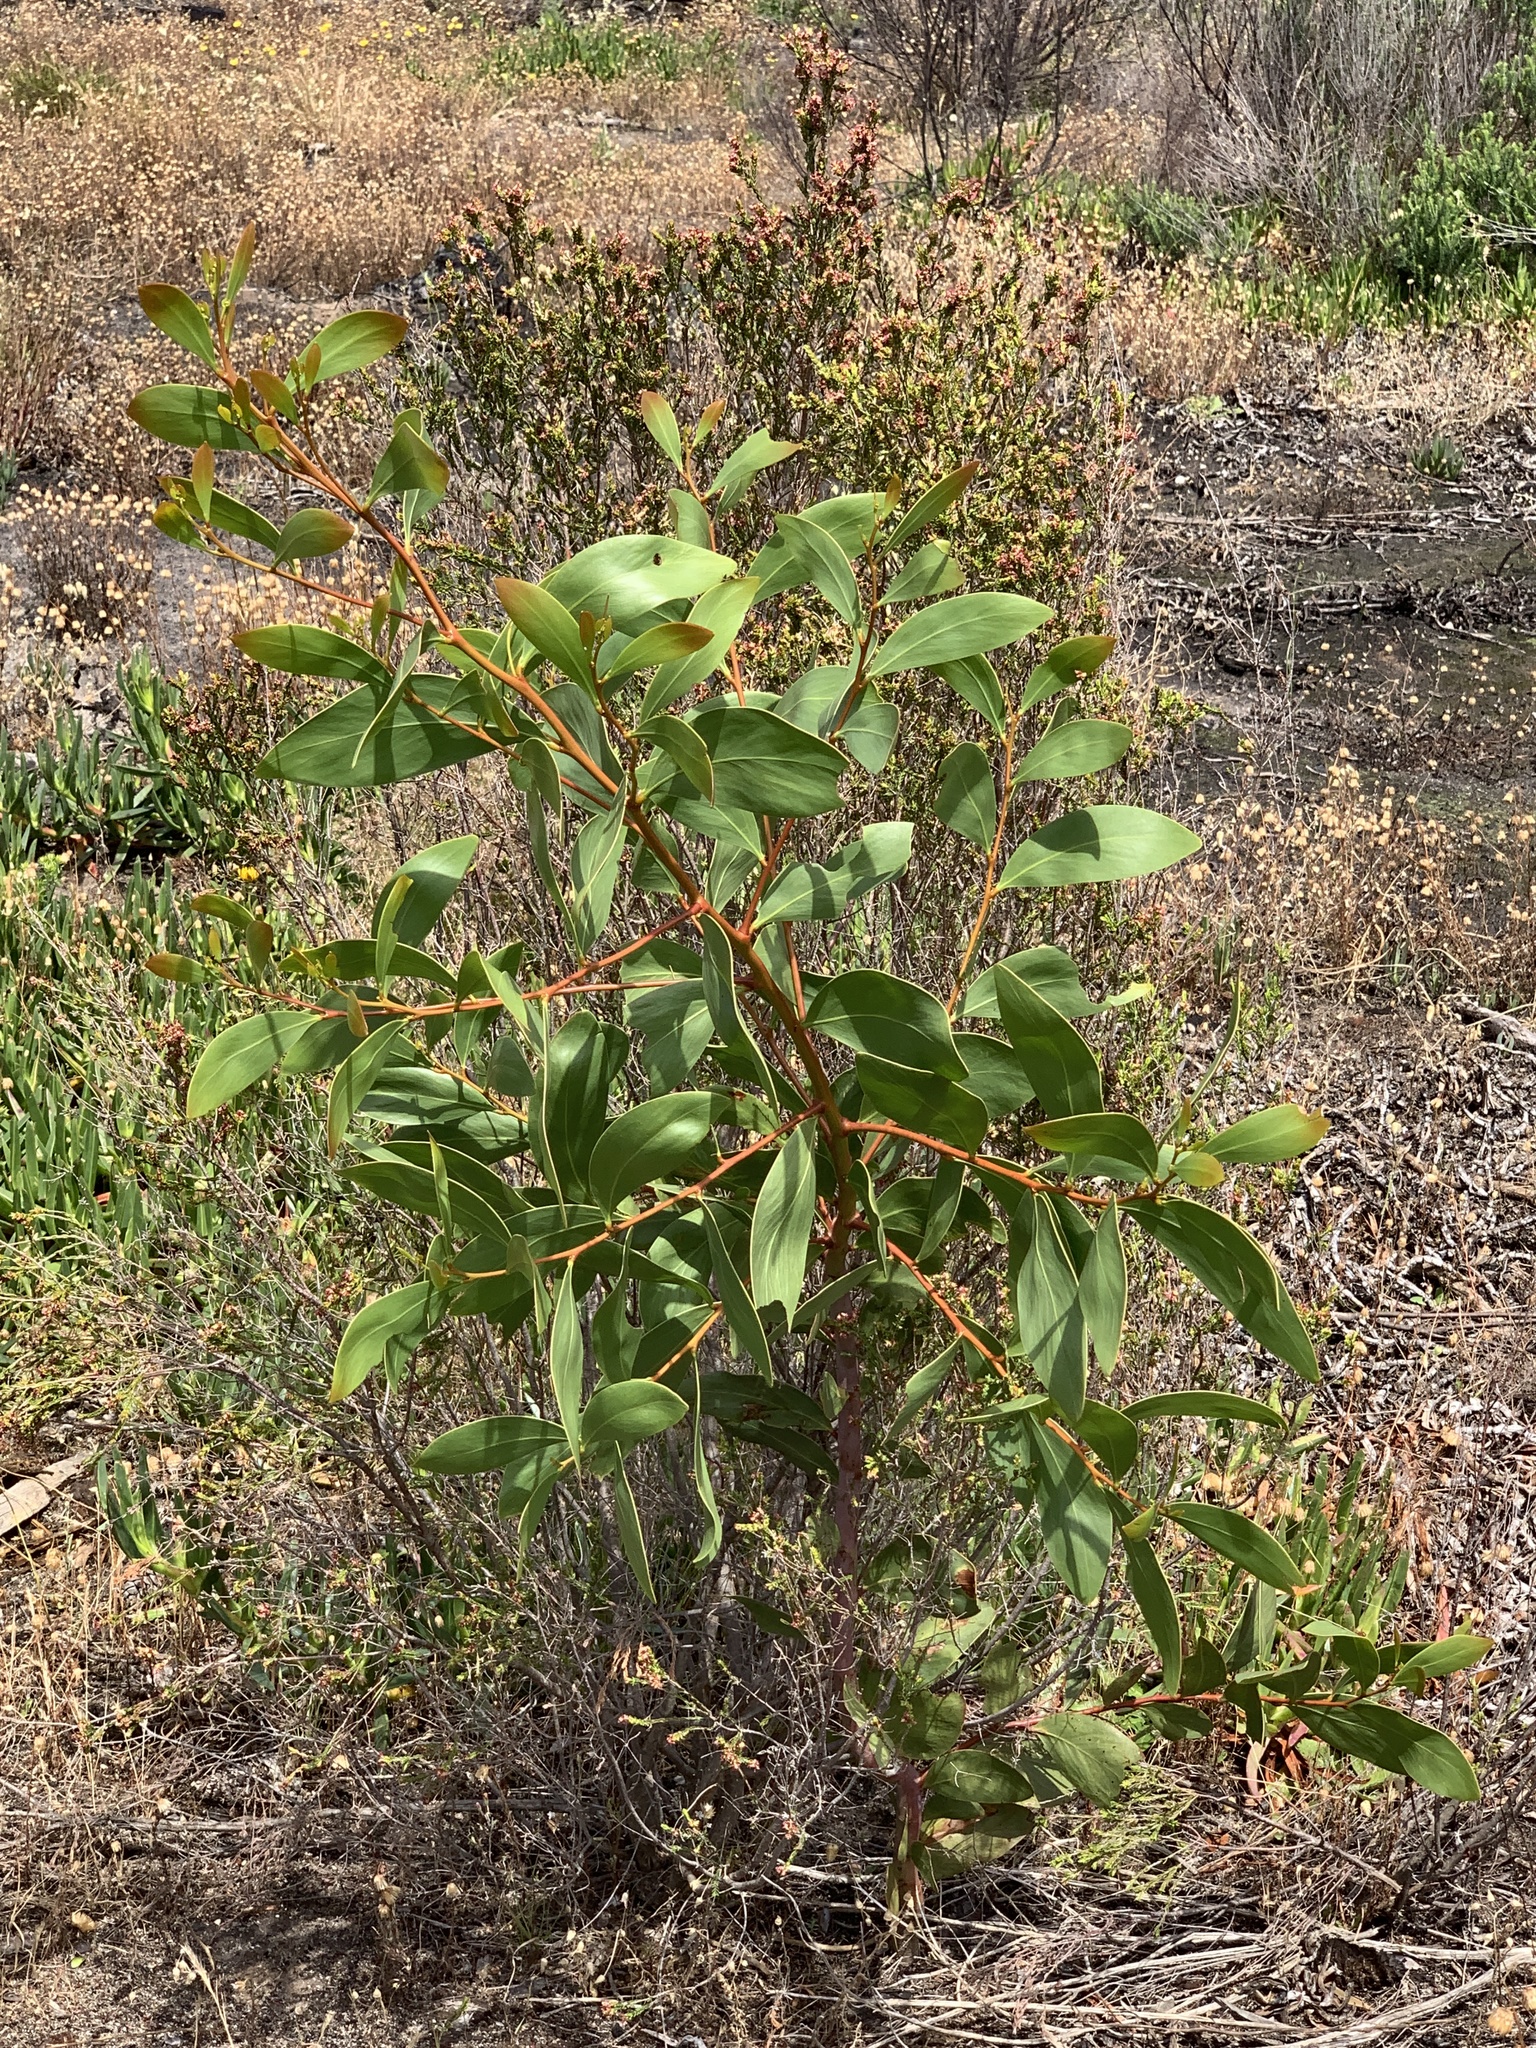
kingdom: Plantae
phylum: Tracheophyta
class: Magnoliopsida
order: Fabales
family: Fabaceae
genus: Acacia
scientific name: Acacia pycnantha
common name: Golden wattle
